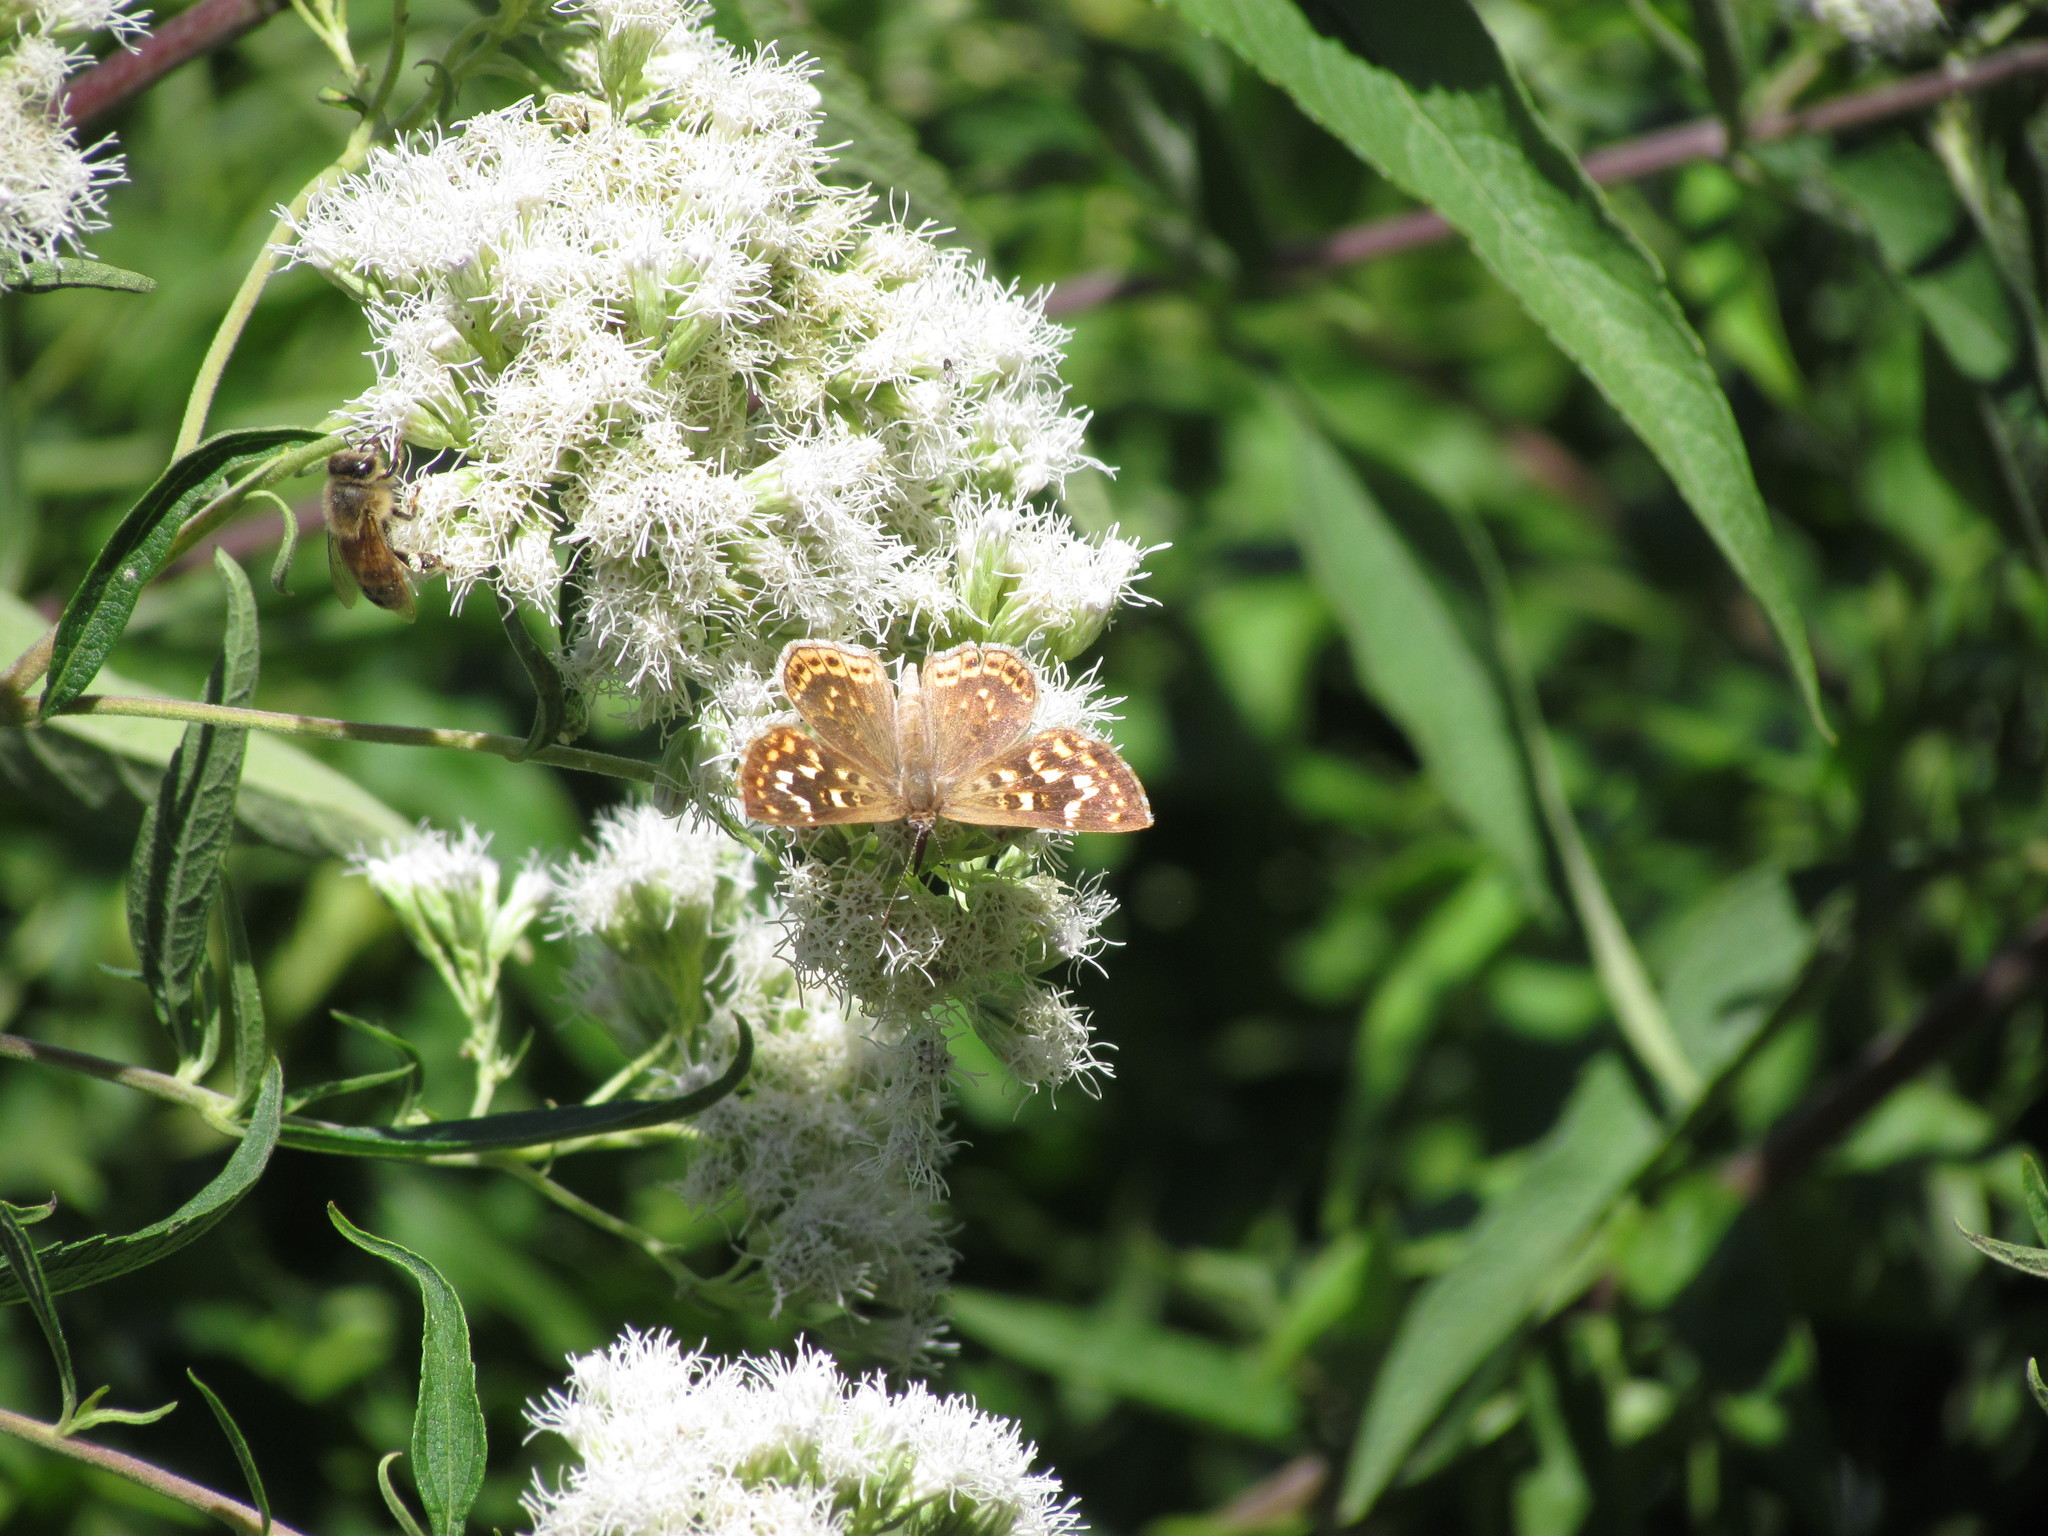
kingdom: Animalia
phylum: Arthropoda
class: Insecta
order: Lepidoptera
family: Lycaenidae
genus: Aricoris
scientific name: Aricoris indistincta
